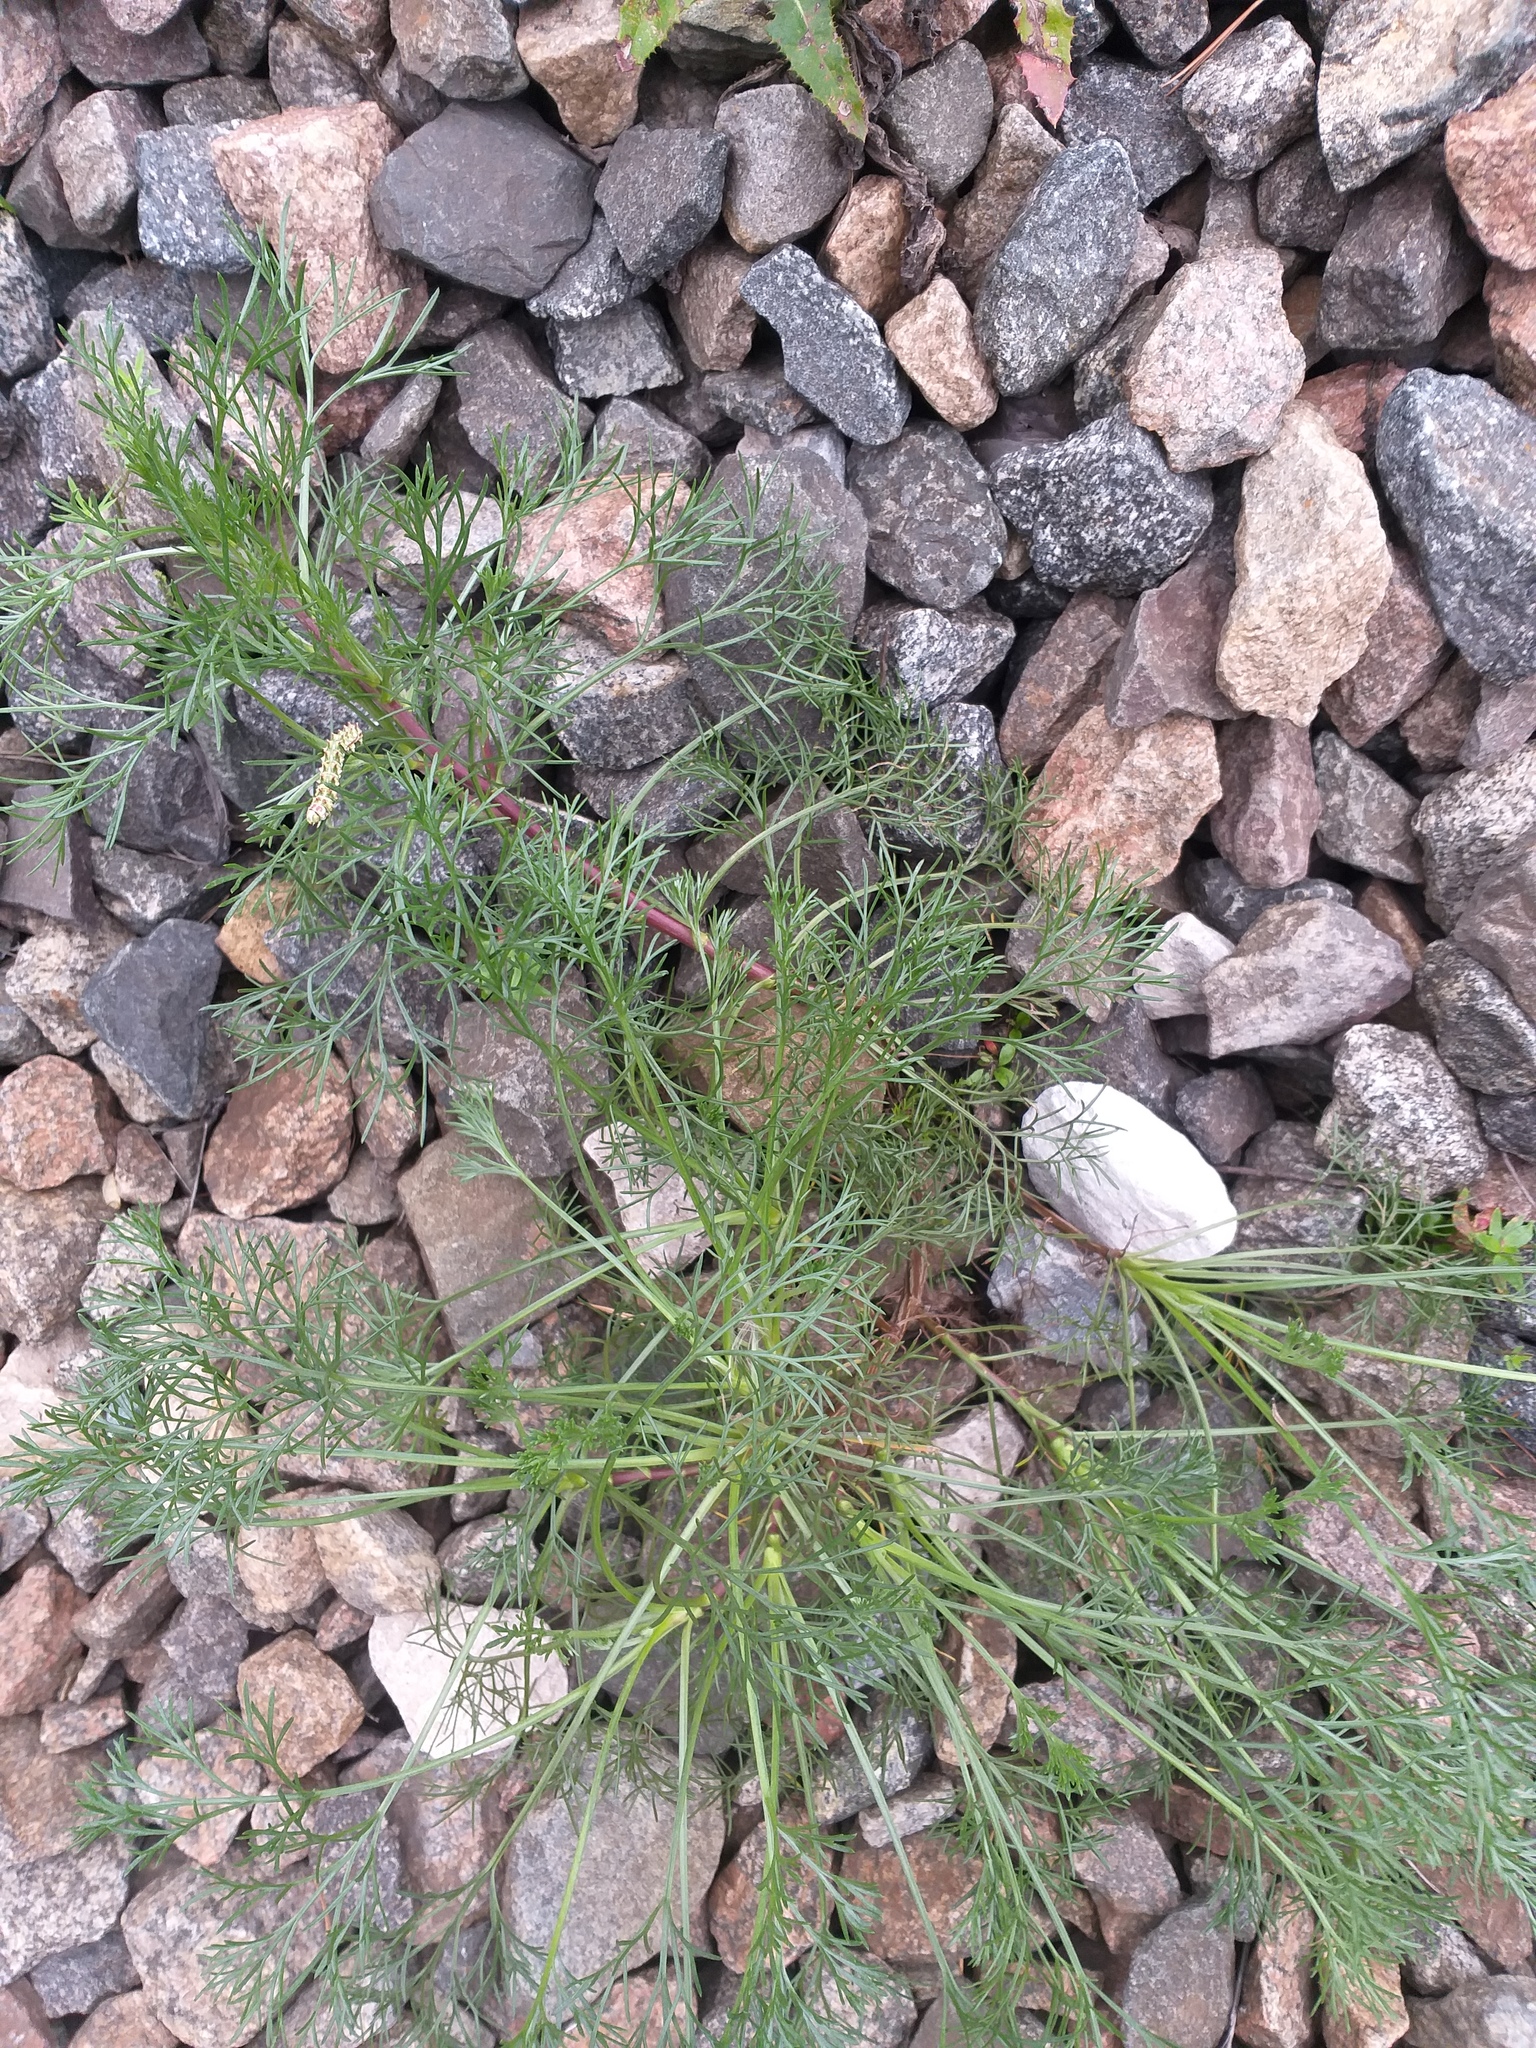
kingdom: Plantae
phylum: Tracheophyta
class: Magnoliopsida
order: Asterales
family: Asteraceae
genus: Artemisia
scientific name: Artemisia campestris
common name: Field wormwood
